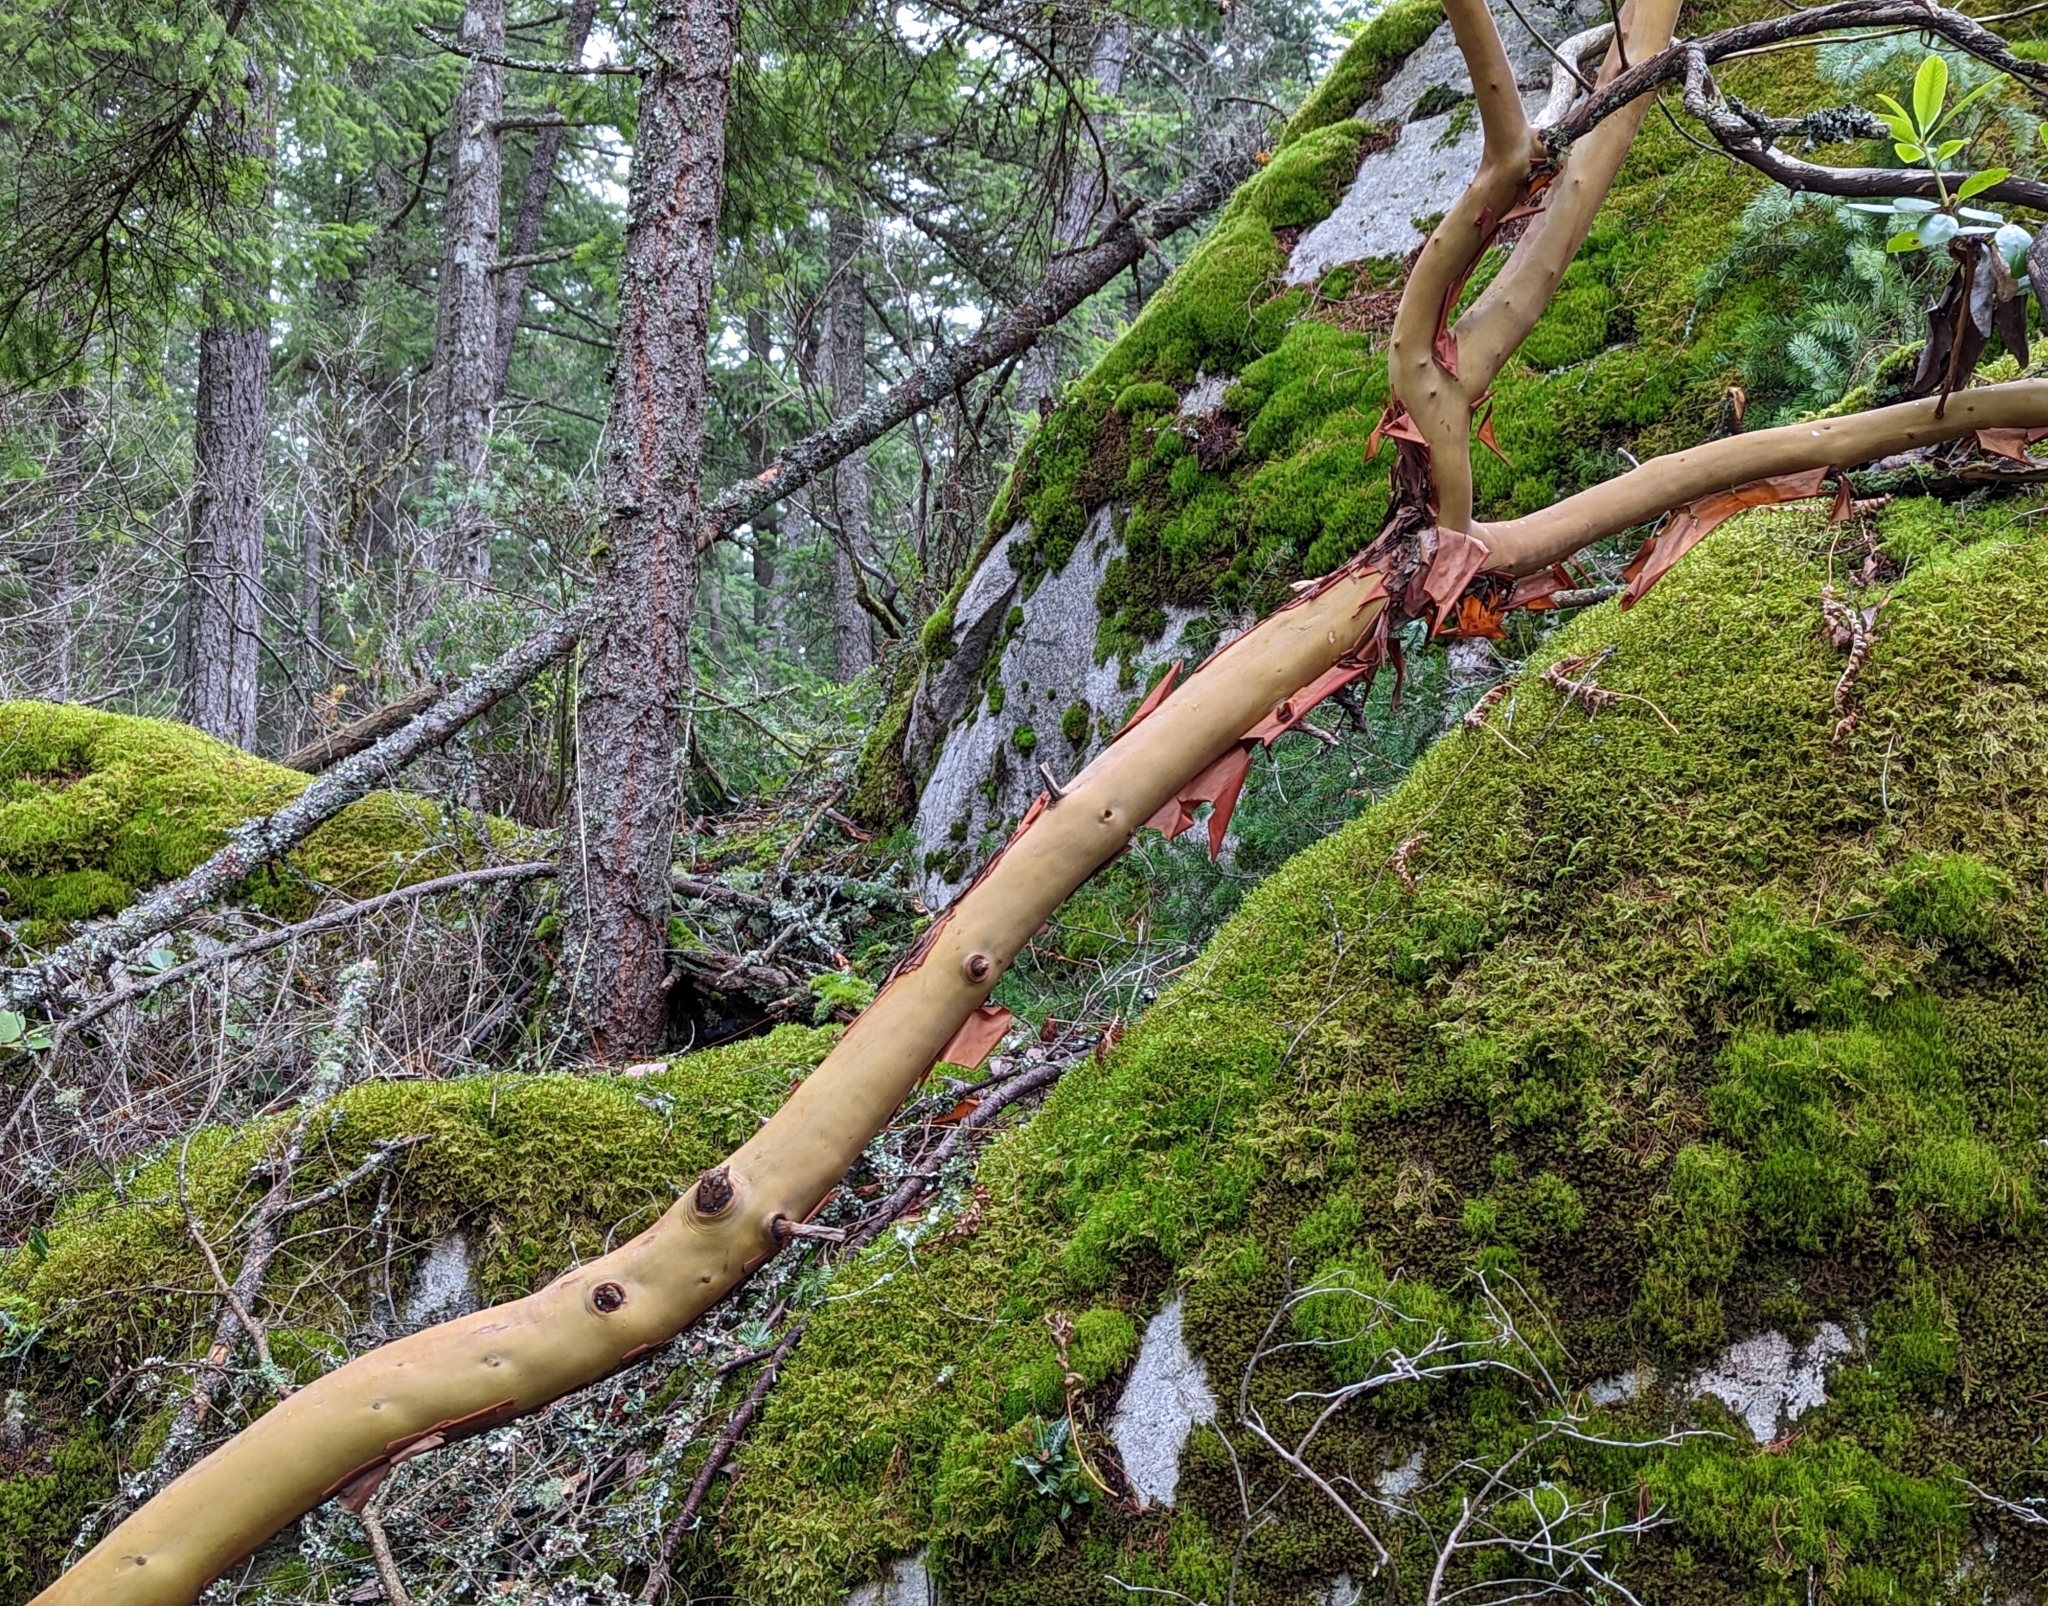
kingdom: Plantae
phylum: Tracheophyta
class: Magnoliopsida
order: Ericales
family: Ericaceae
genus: Arbutus
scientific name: Arbutus menziesii
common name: Pacific madrone
